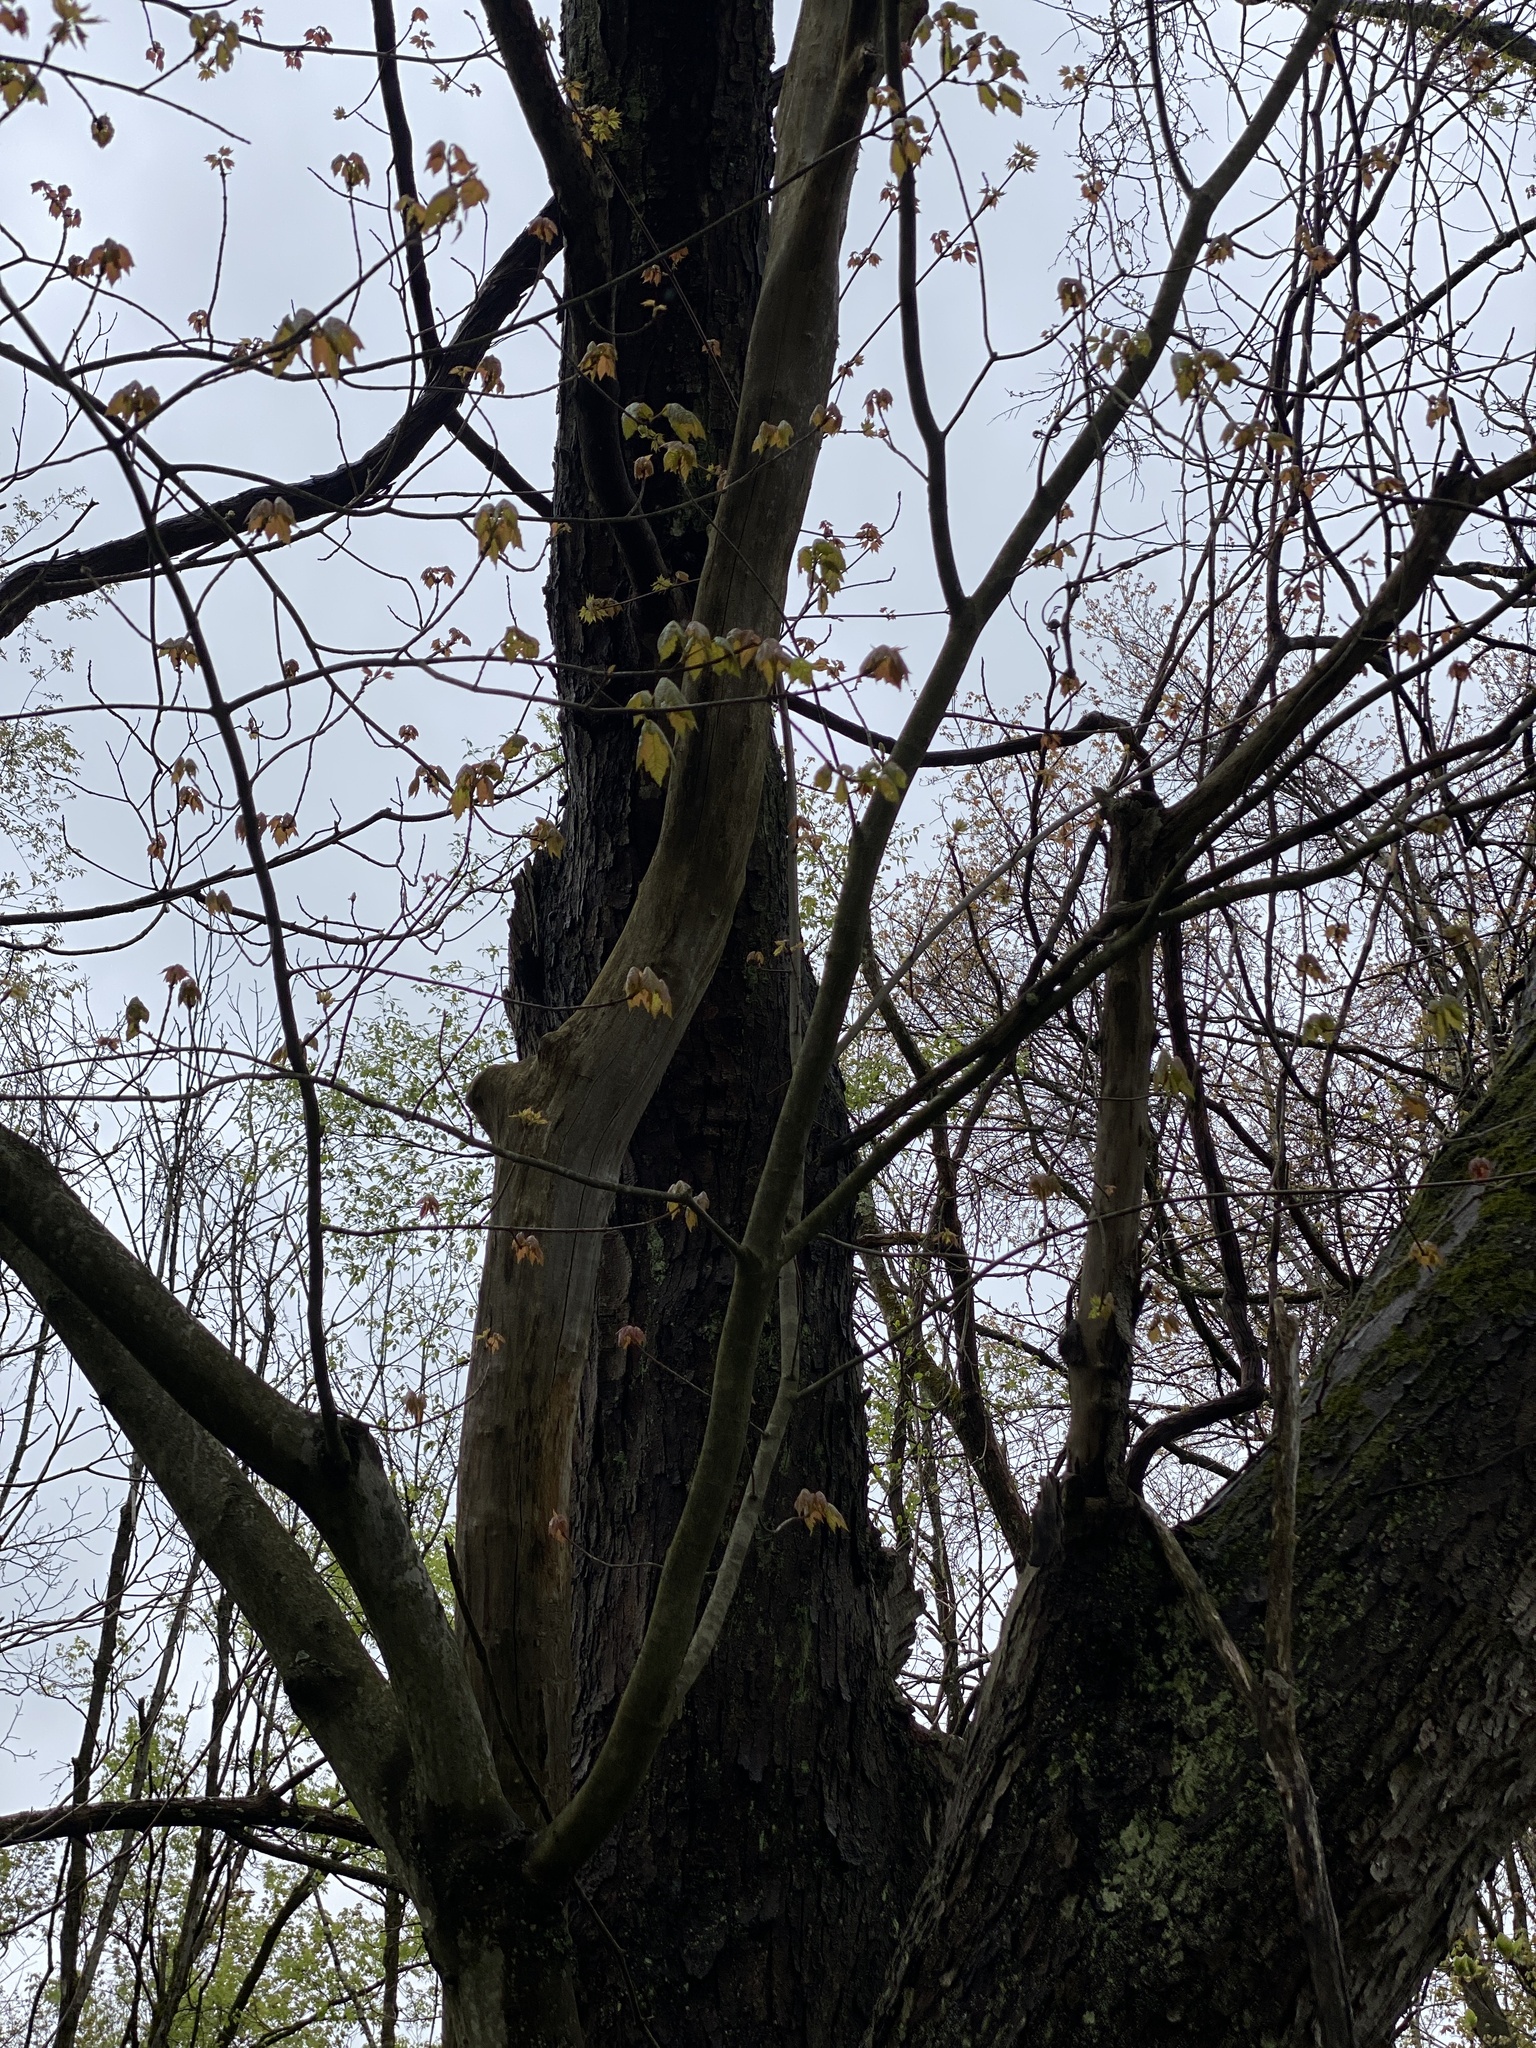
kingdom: Plantae
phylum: Tracheophyta
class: Magnoliopsida
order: Sapindales
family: Sapindaceae
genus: Acer
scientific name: Acer rubrum
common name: Red maple
